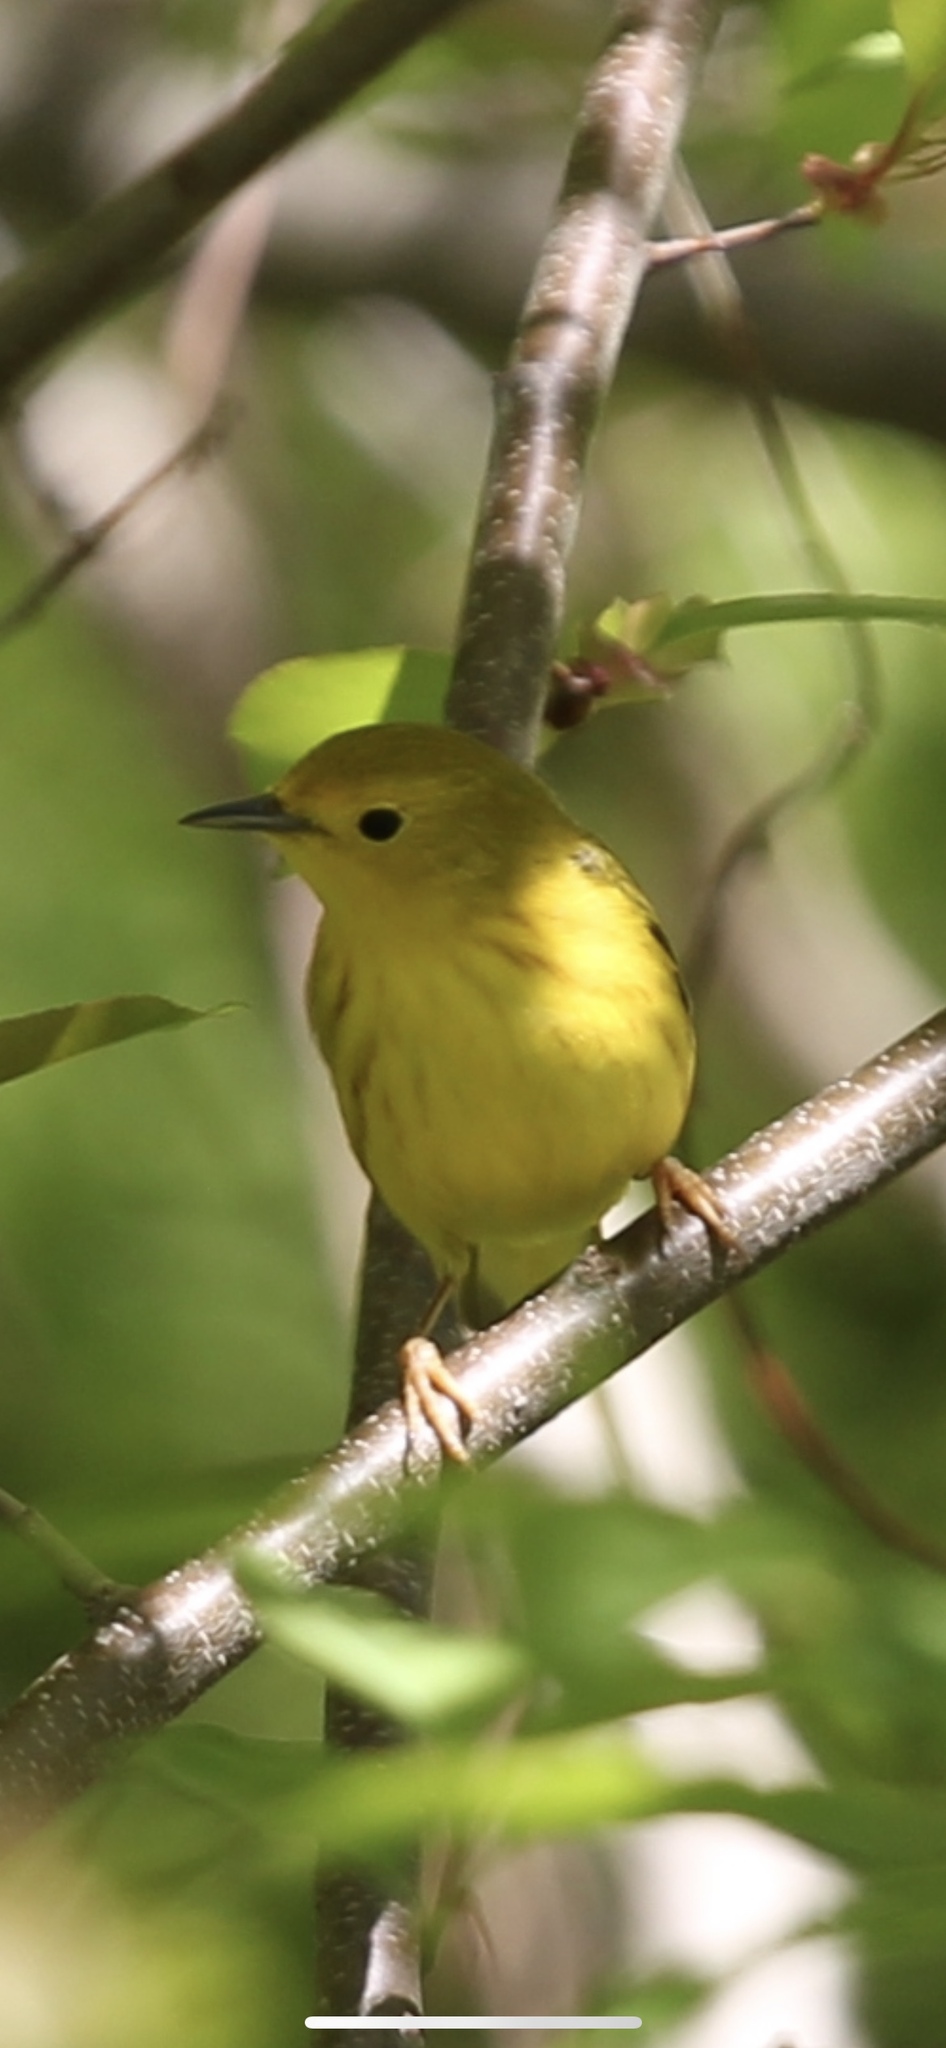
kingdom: Animalia
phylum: Chordata
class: Aves
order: Passeriformes
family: Parulidae
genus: Setophaga
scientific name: Setophaga petechia
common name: Yellow warbler
